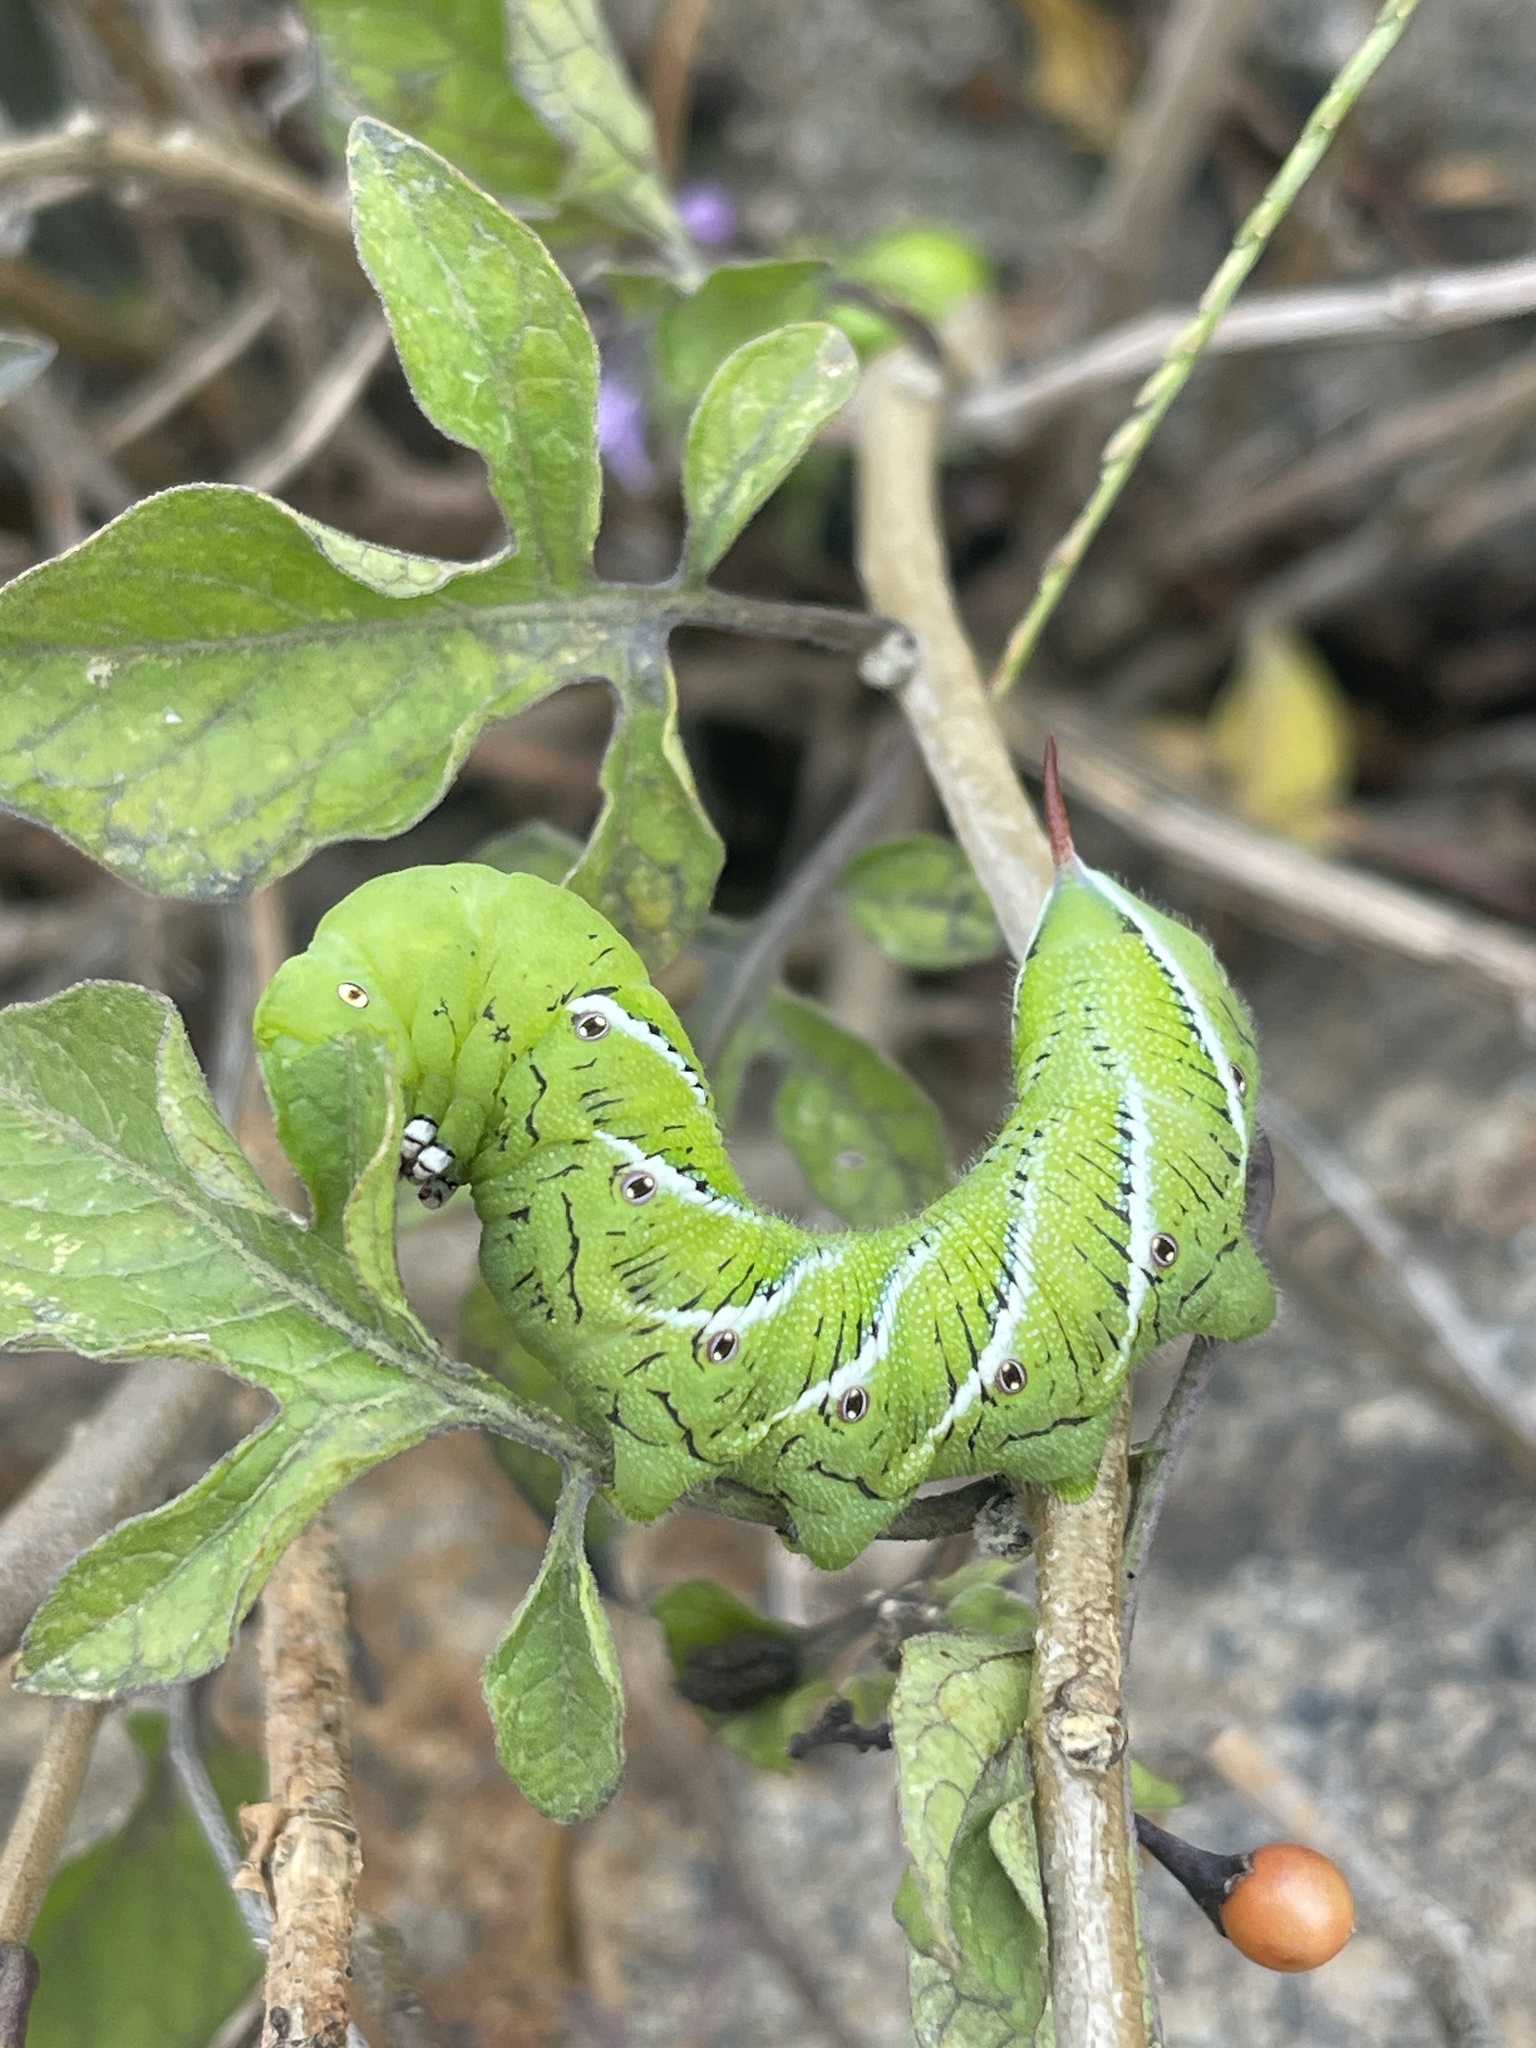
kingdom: Animalia
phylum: Arthropoda
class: Insecta
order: Lepidoptera
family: Sphingidae
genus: Manduca
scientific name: Manduca sexta
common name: Carolina sphinx
